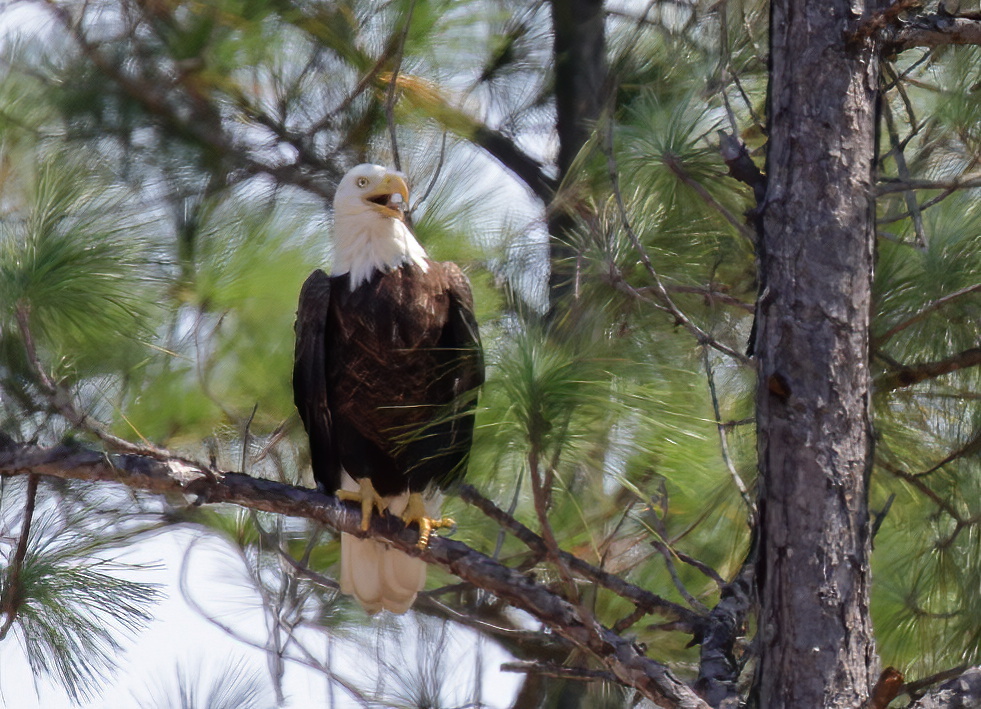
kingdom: Animalia
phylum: Chordata
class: Aves
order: Accipitriformes
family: Accipitridae
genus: Haliaeetus
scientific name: Haliaeetus leucocephalus
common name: Bald eagle
